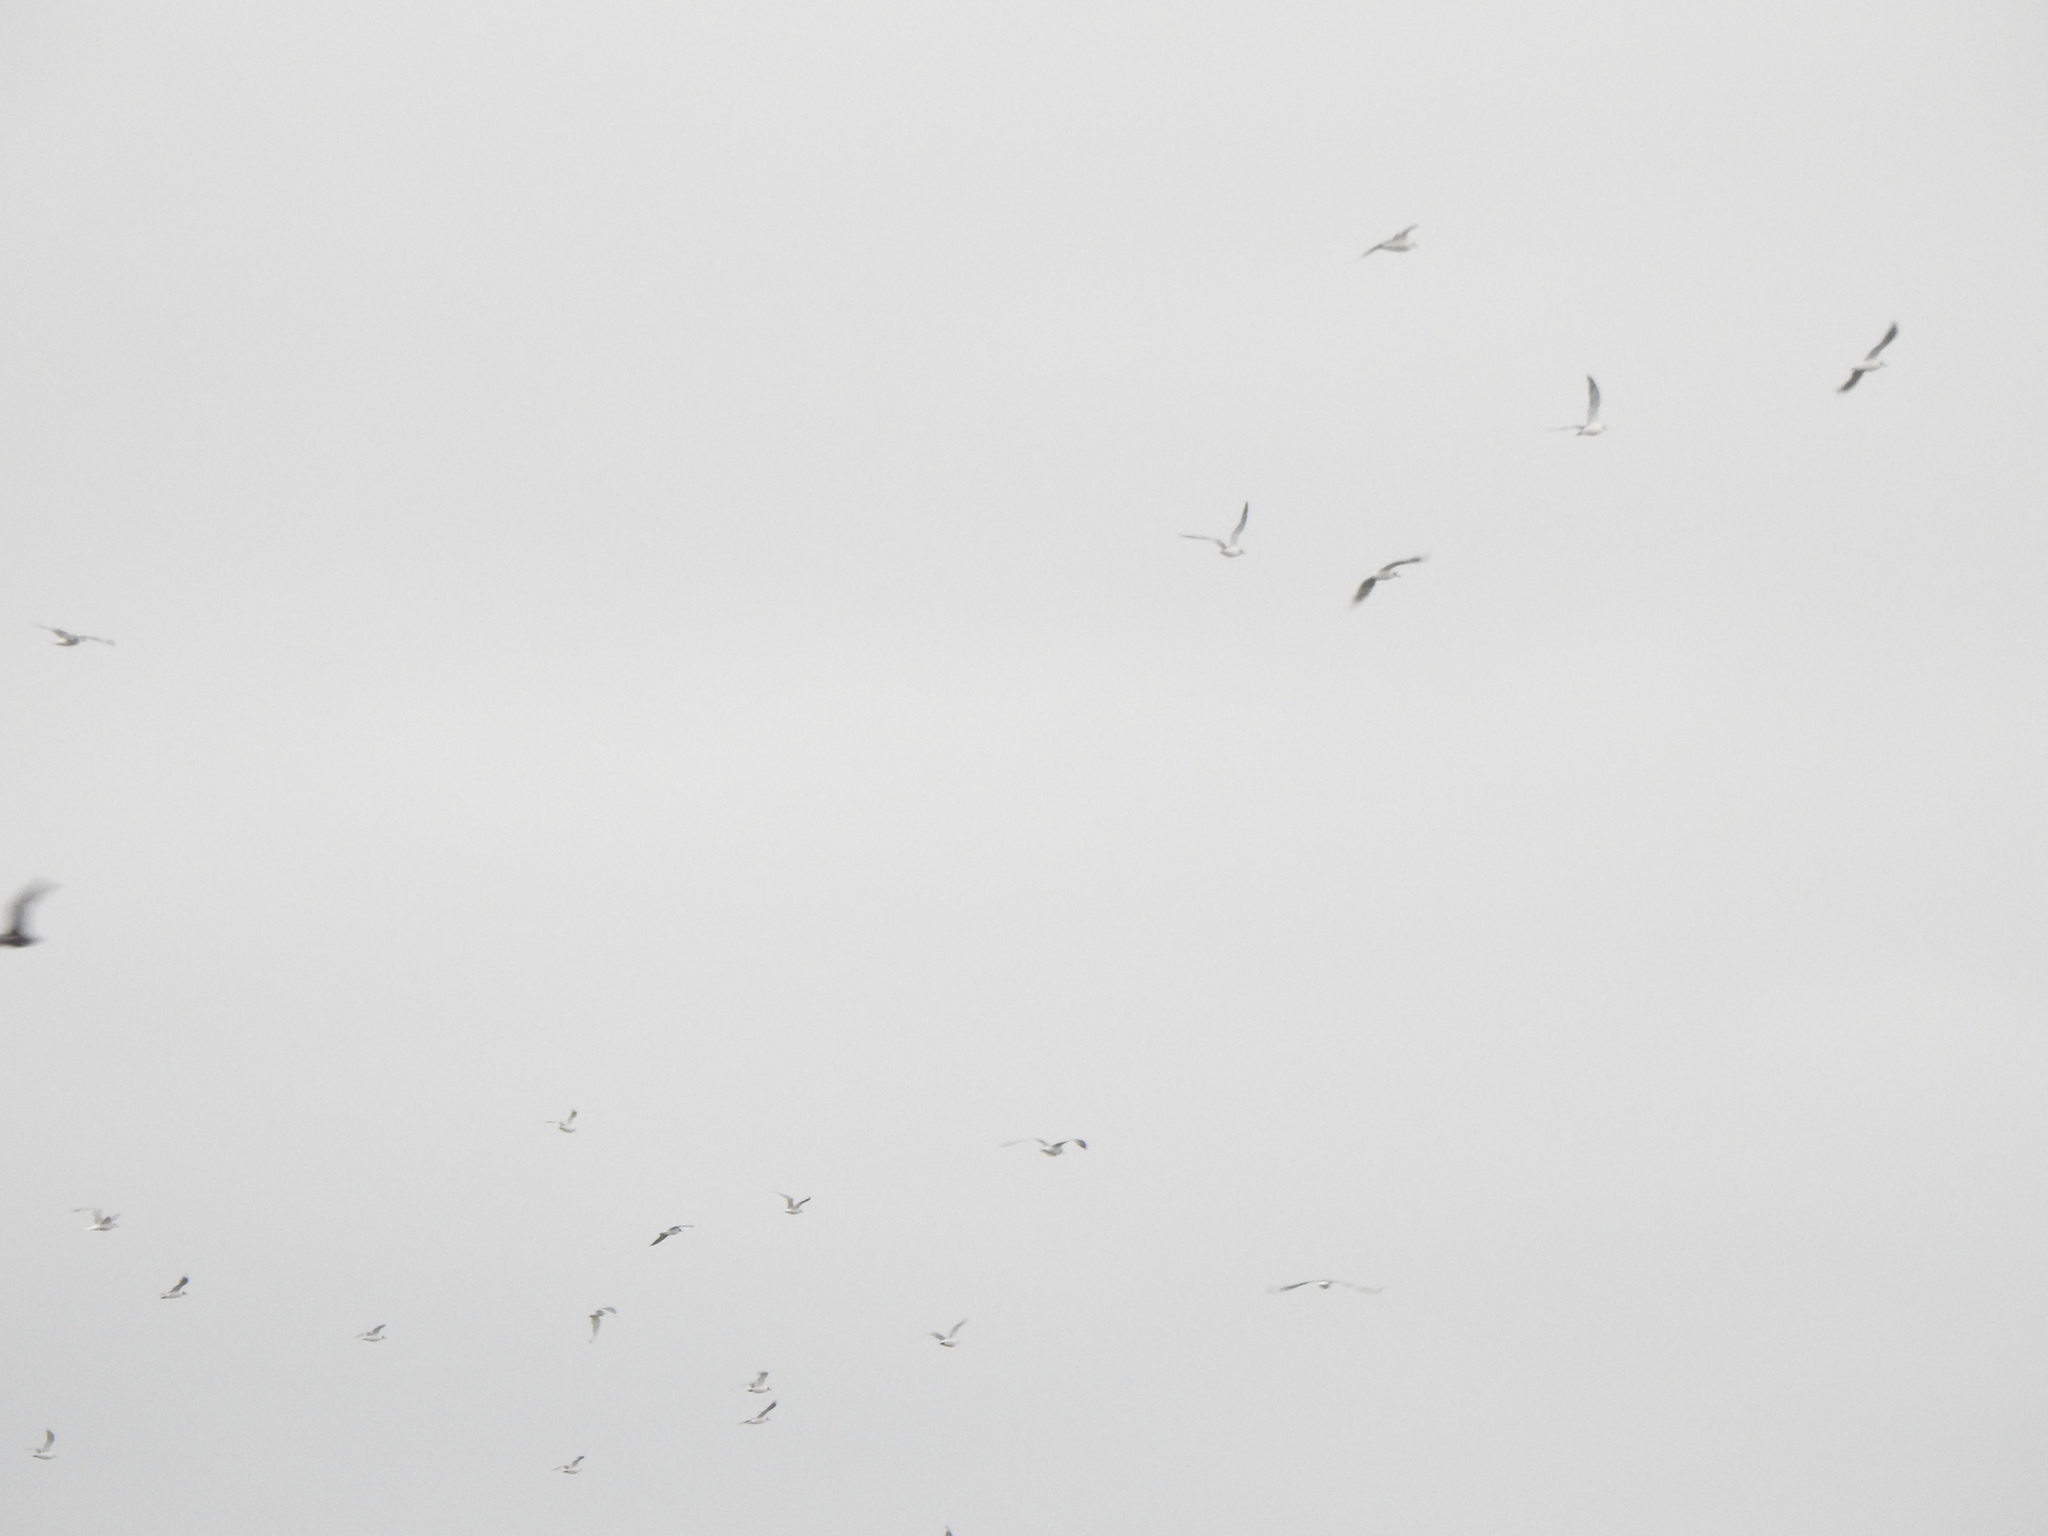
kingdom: Animalia
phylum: Chordata
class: Aves
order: Charadriiformes
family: Laridae
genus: Leucophaeus
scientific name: Leucophaeus pipixcan
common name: Franklin's gull
